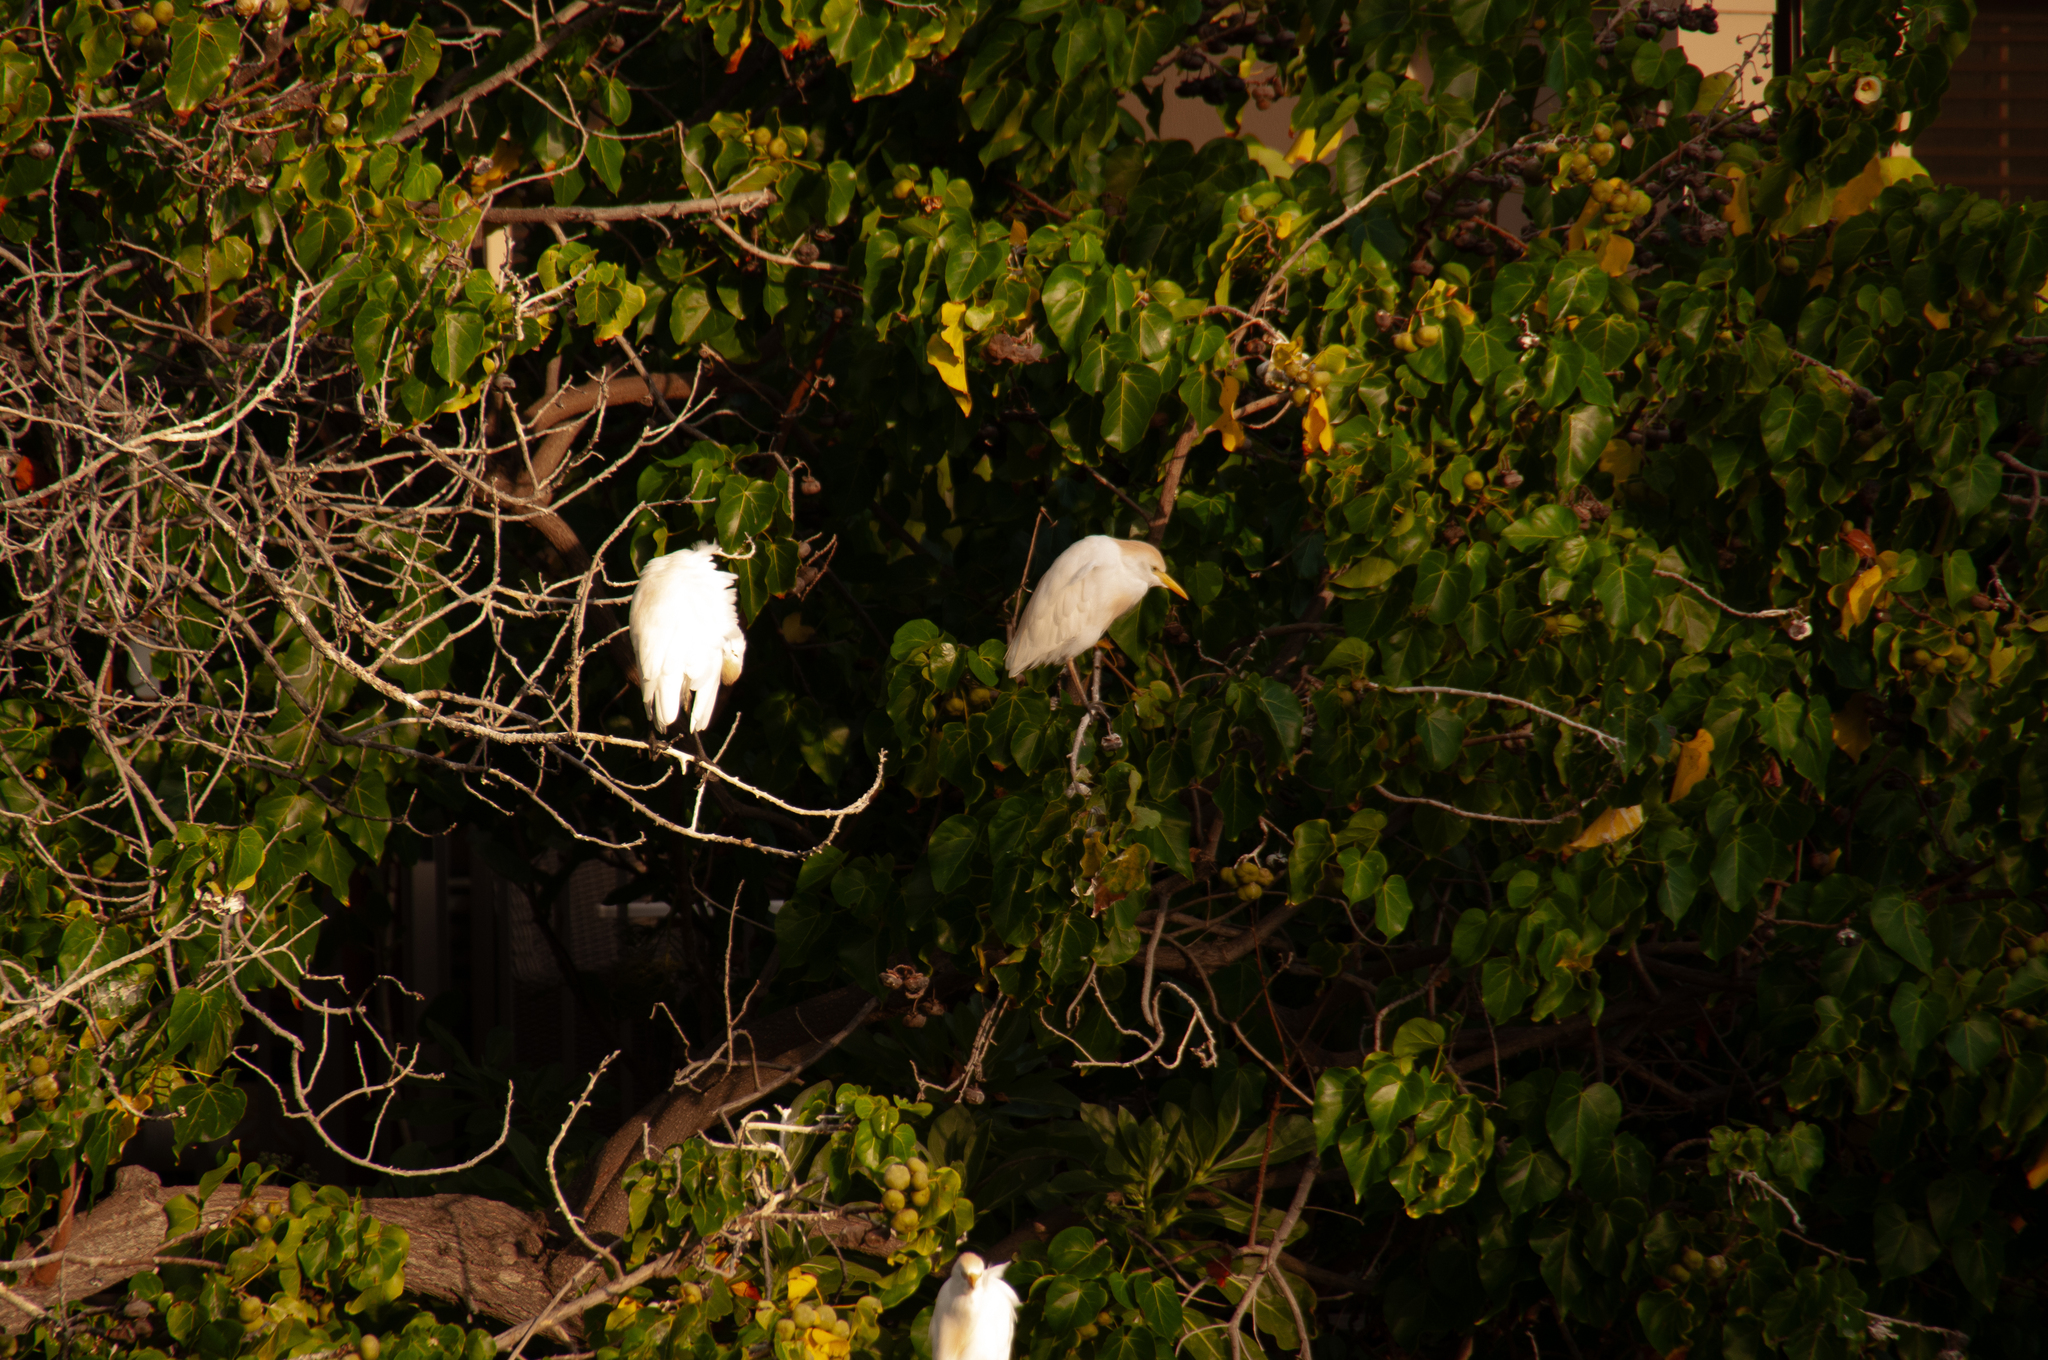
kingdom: Animalia
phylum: Chordata
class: Aves
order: Pelecaniformes
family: Ardeidae
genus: Bubulcus
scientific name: Bubulcus ibis
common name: Cattle egret
